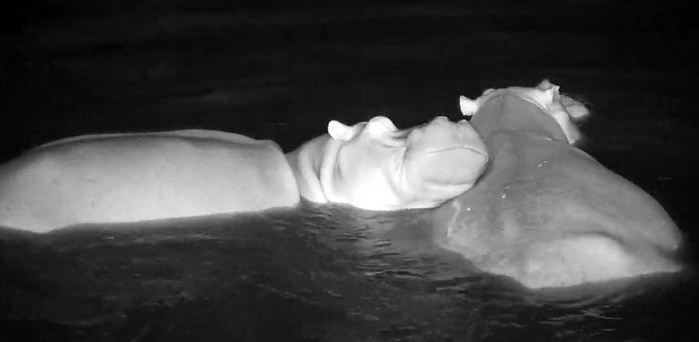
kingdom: Animalia
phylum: Chordata
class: Mammalia
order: Artiodactyla
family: Hippopotamidae
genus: Hippopotamus
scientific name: Hippopotamus amphibius
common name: Common hippopotamus
